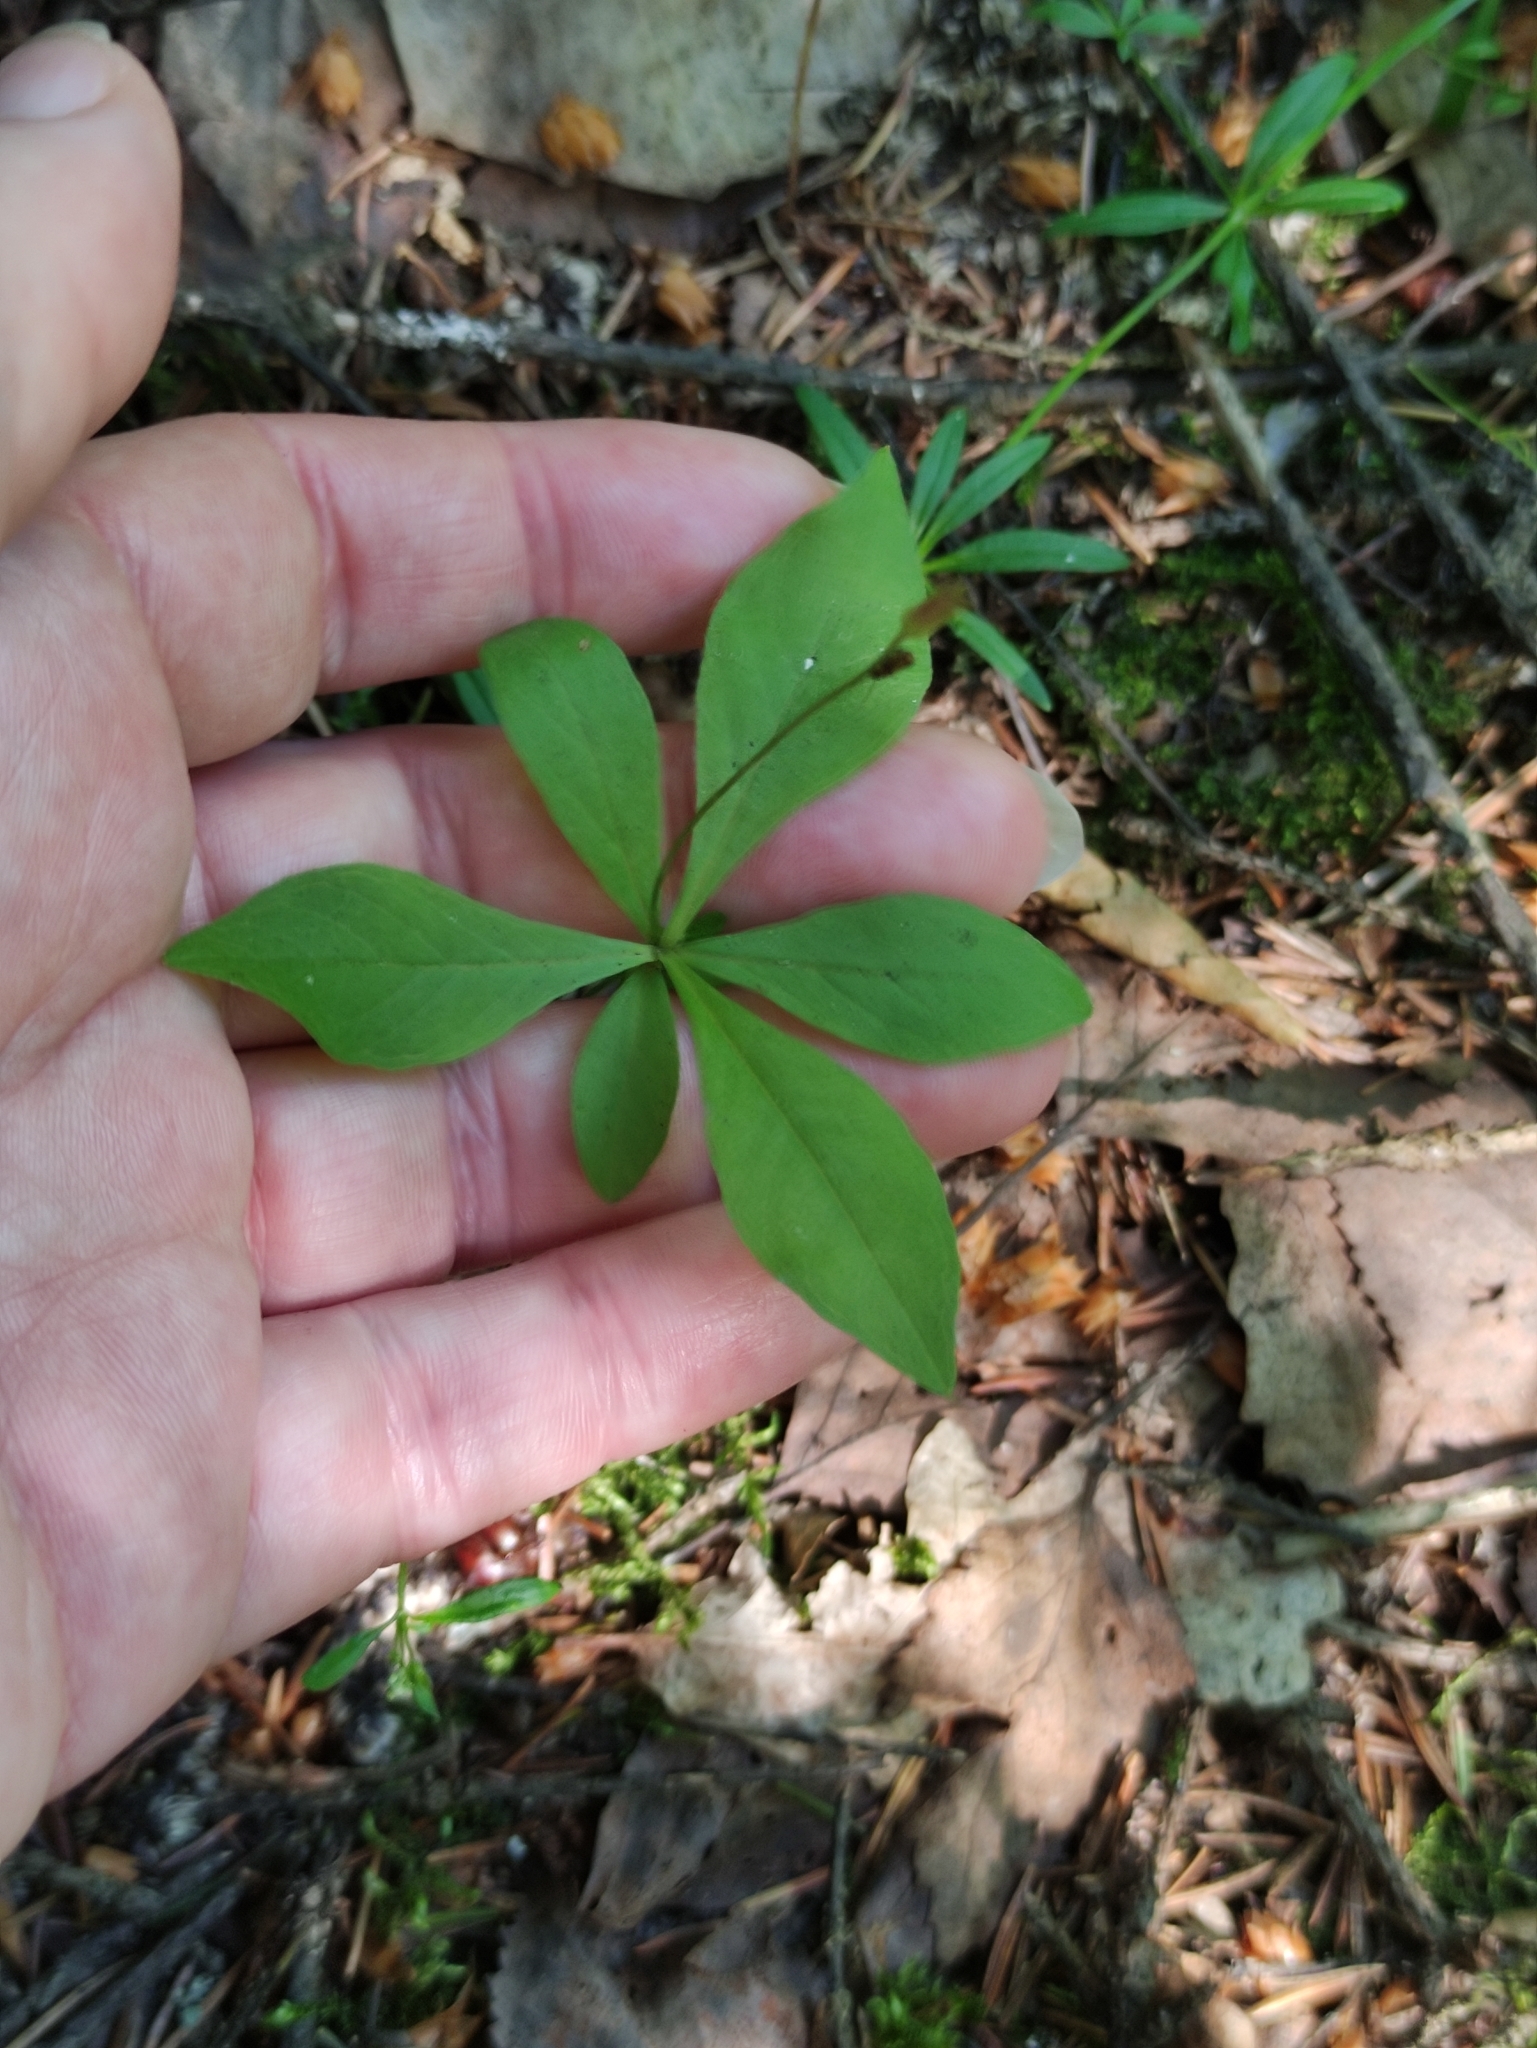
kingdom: Plantae
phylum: Tracheophyta
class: Magnoliopsida
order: Ericales
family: Primulaceae
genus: Lysimachia
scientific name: Lysimachia europaea
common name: Arctic starflower
